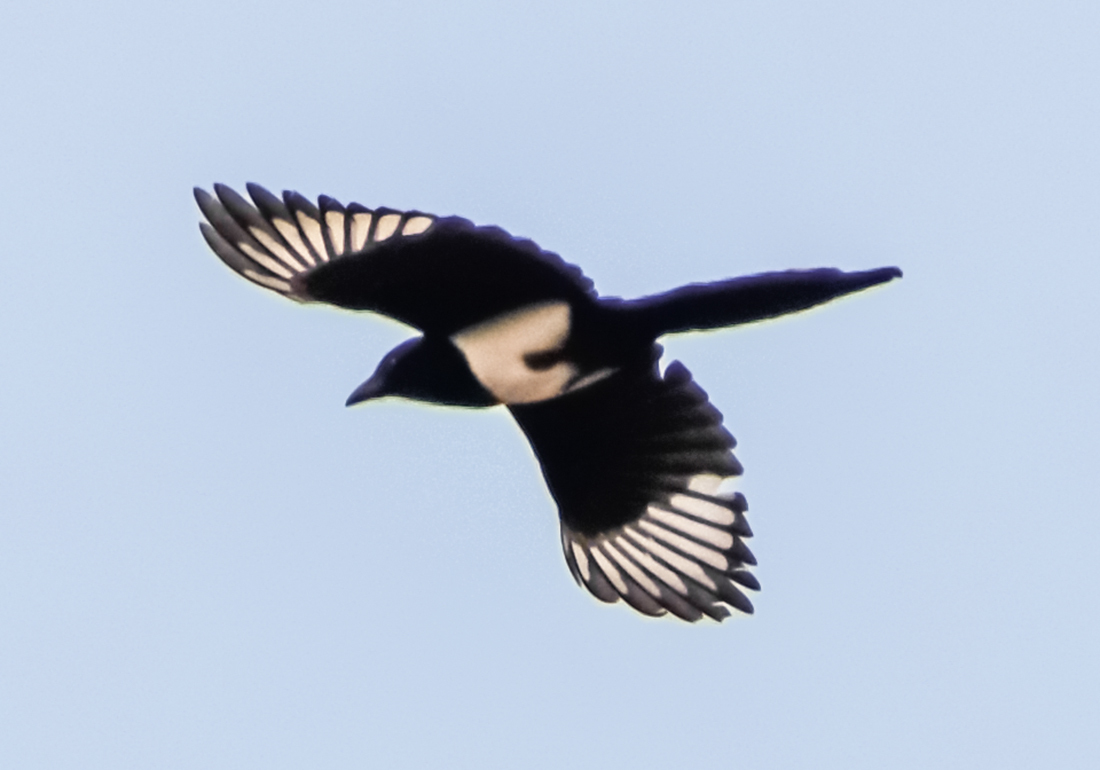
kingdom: Animalia
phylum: Chordata
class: Aves
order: Passeriformes
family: Corvidae
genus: Pica
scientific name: Pica pica
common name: Eurasian magpie
